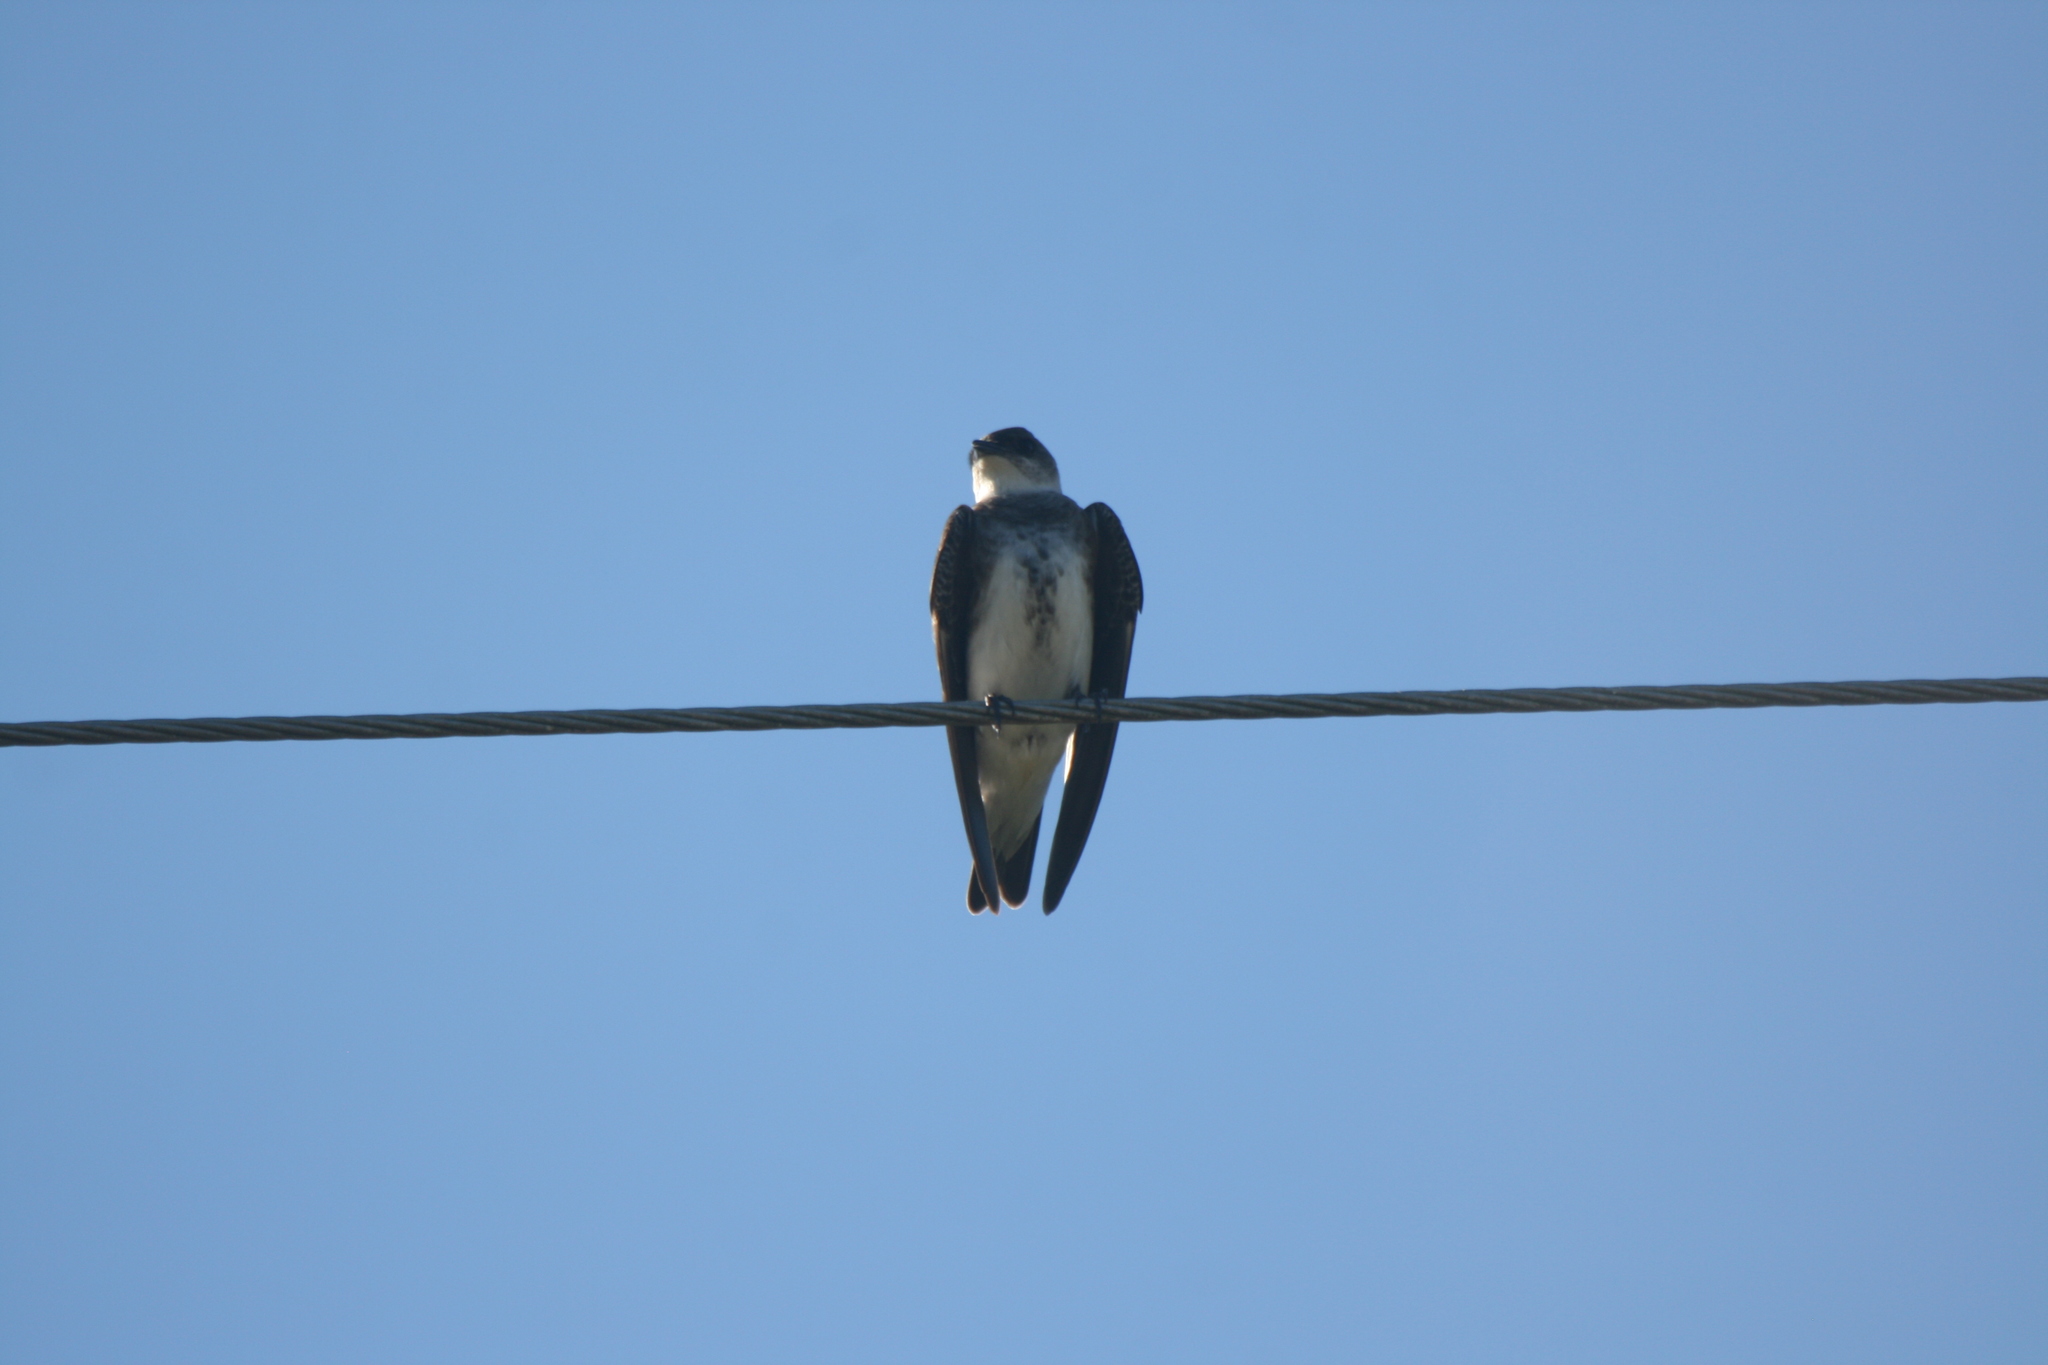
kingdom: Animalia
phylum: Chordata
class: Aves
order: Passeriformes
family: Hirundinidae
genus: Progne
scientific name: Progne tapera
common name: Brown-chested martin
